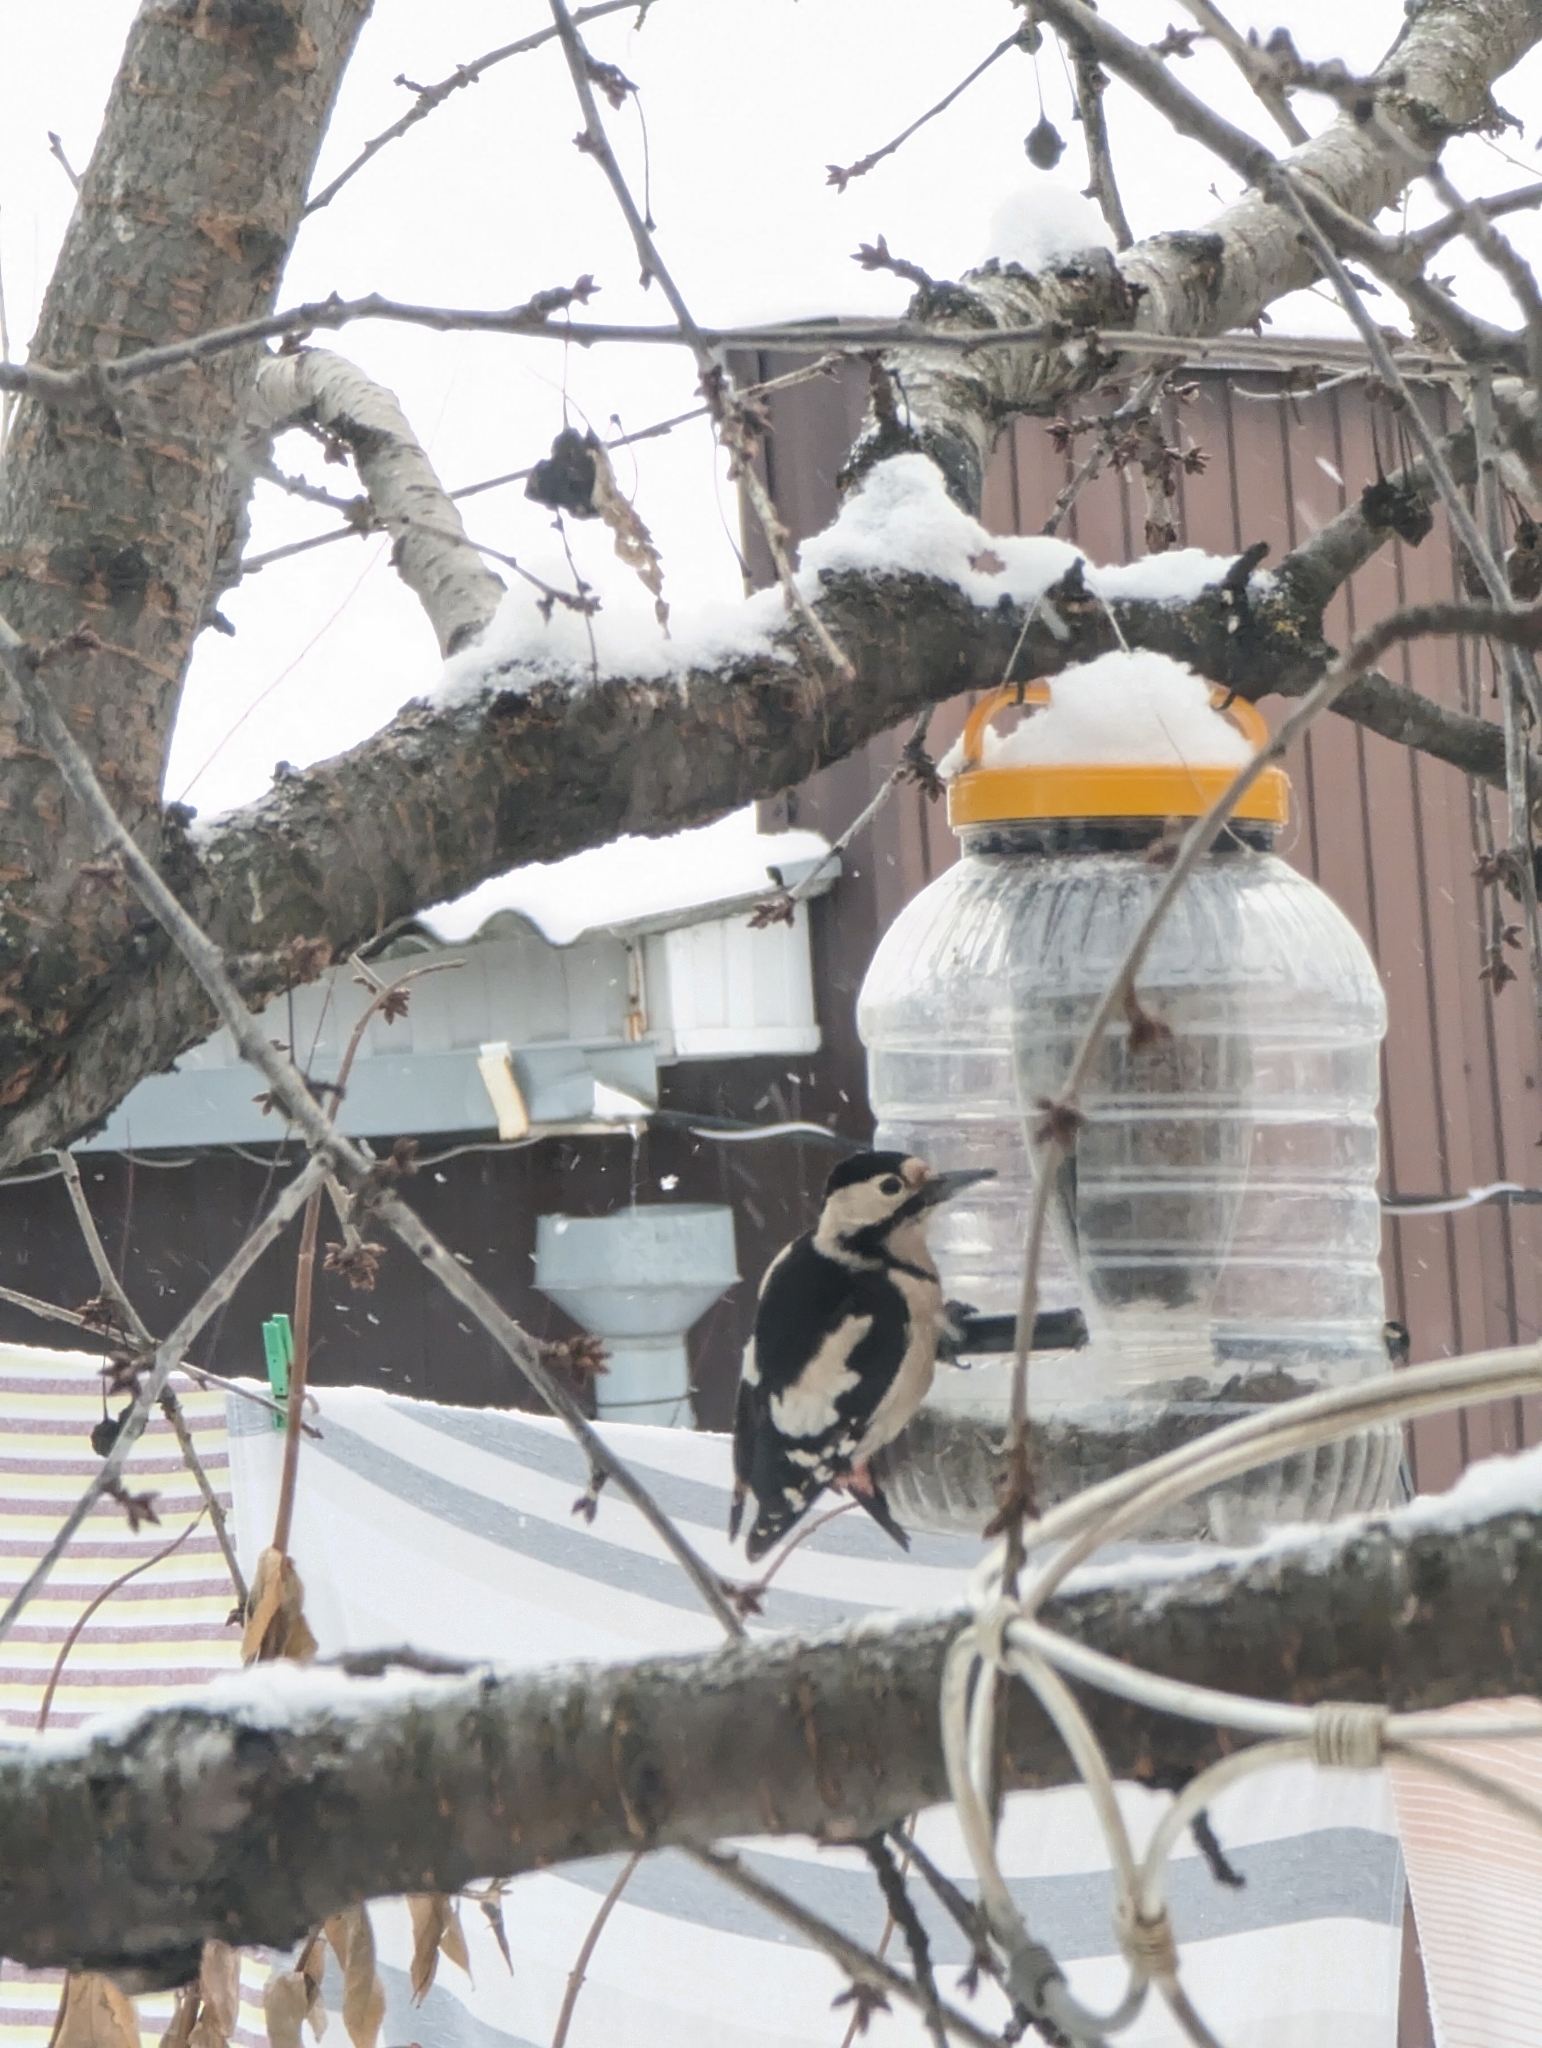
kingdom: Animalia
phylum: Chordata
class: Aves
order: Piciformes
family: Picidae
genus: Dendrocopos
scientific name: Dendrocopos major
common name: Great spotted woodpecker
